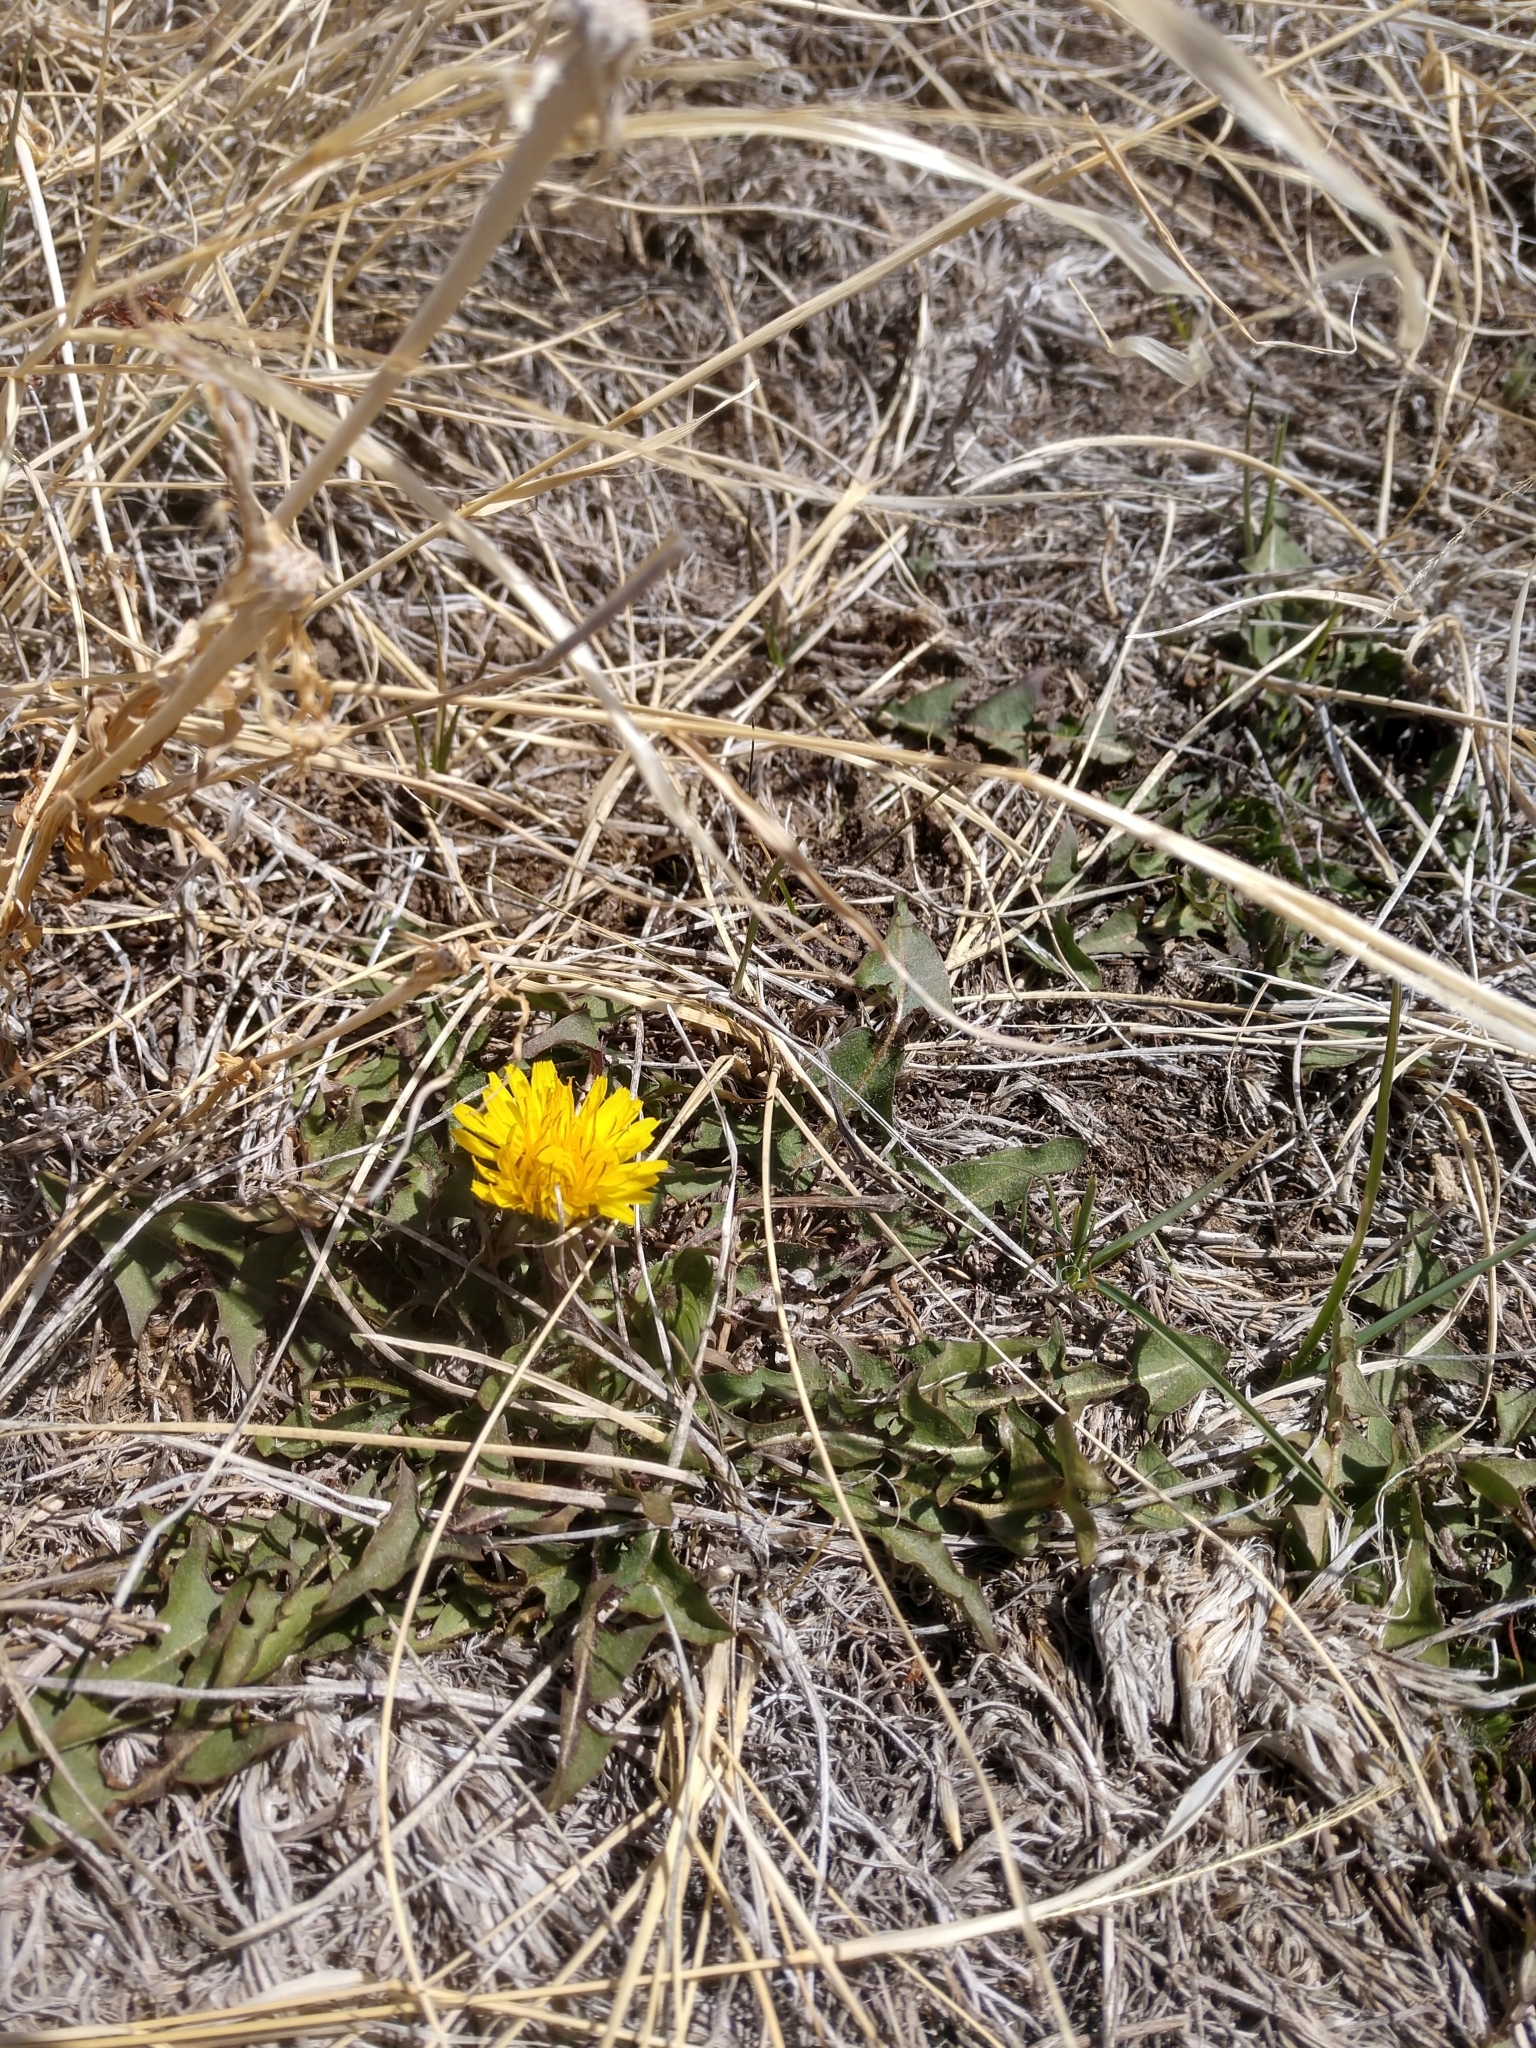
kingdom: Plantae
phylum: Tracheophyta
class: Magnoliopsida
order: Asterales
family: Asteraceae
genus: Taraxacum
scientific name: Taraxacum officinale
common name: Common dandelion
